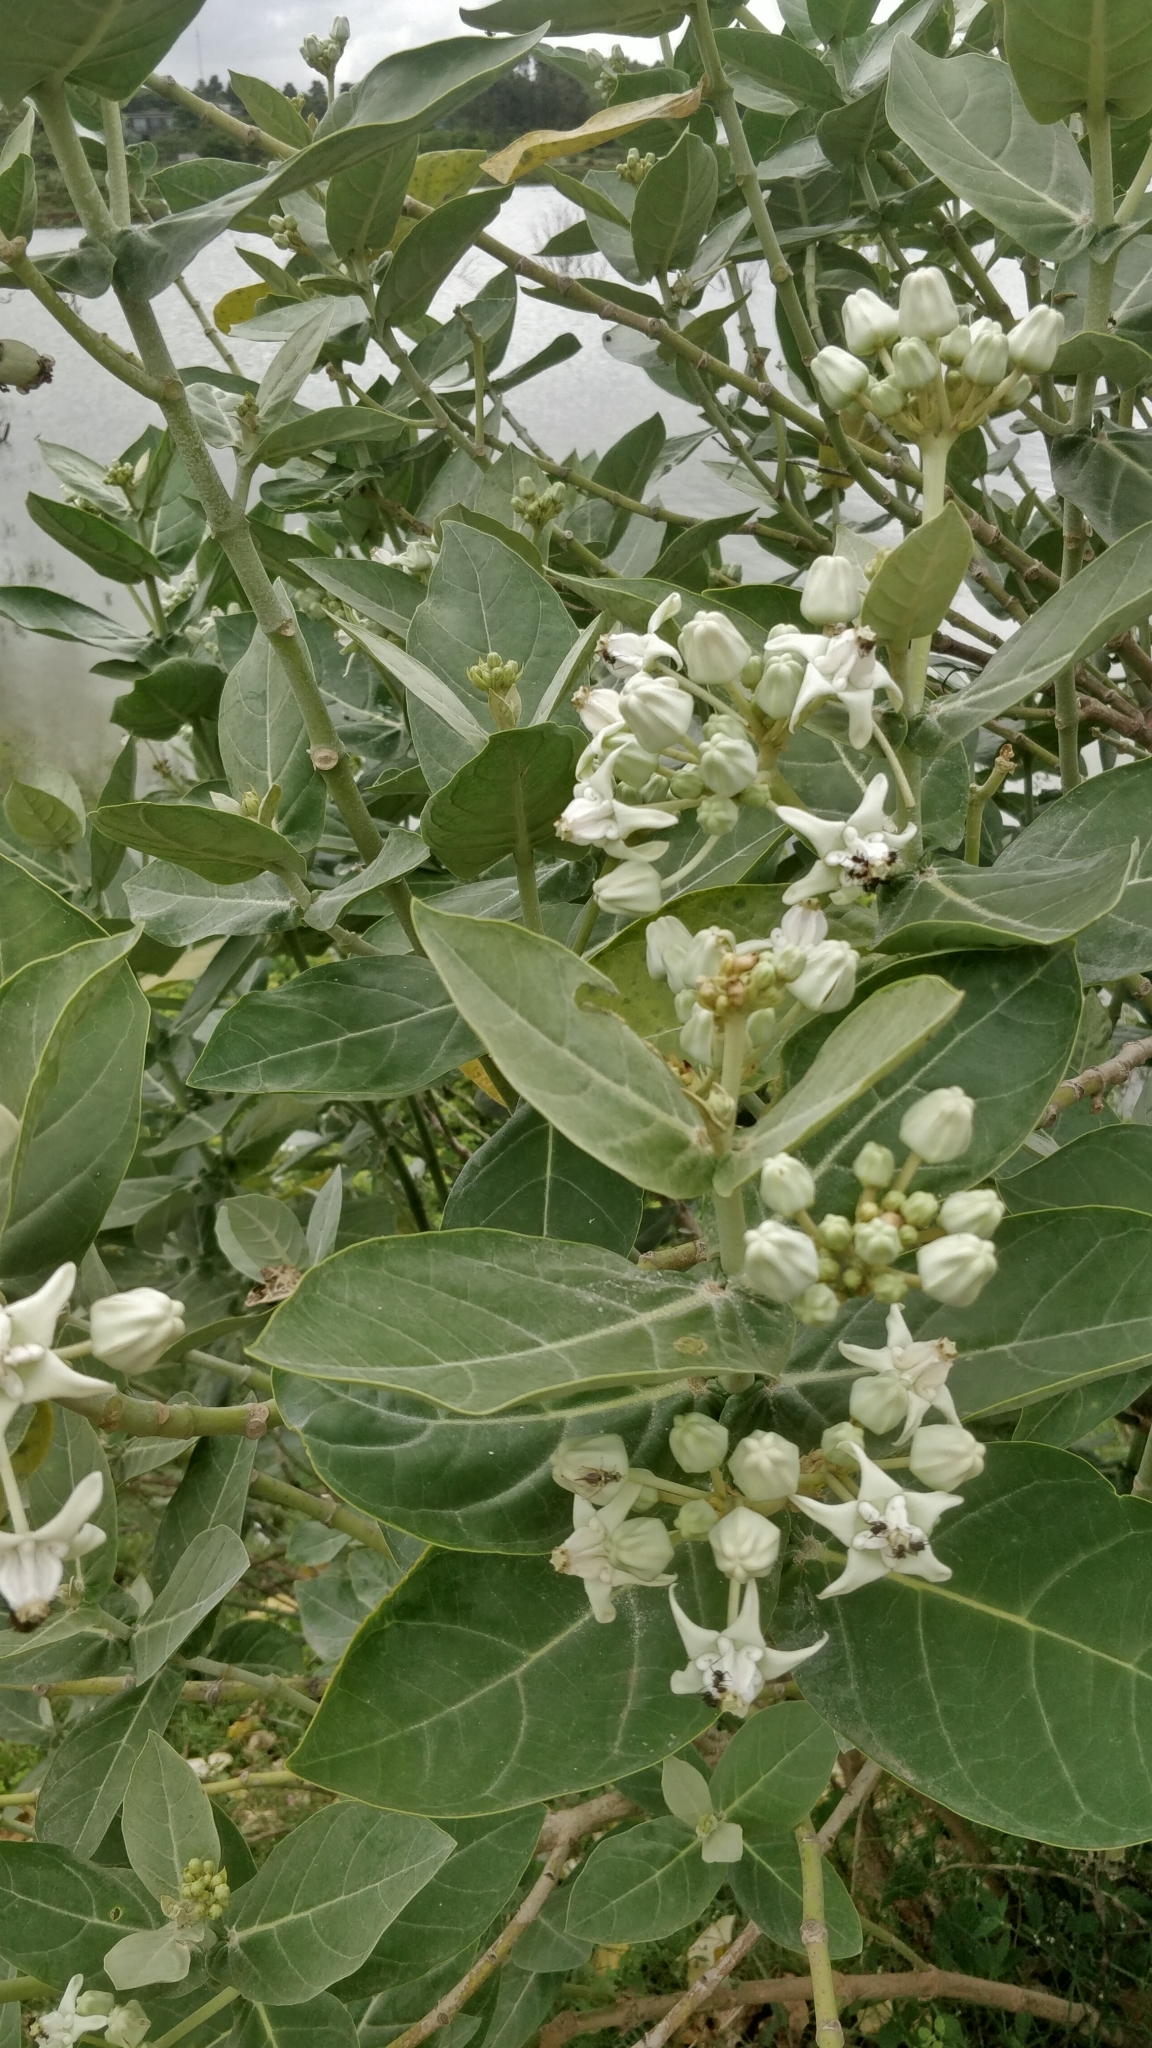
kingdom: Plantae
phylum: Tracheophyta
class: Magnoliopsida
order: Gentianales
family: Apocynaceae
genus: Calotropis
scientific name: Calotropis gigantea
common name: Crown flower
